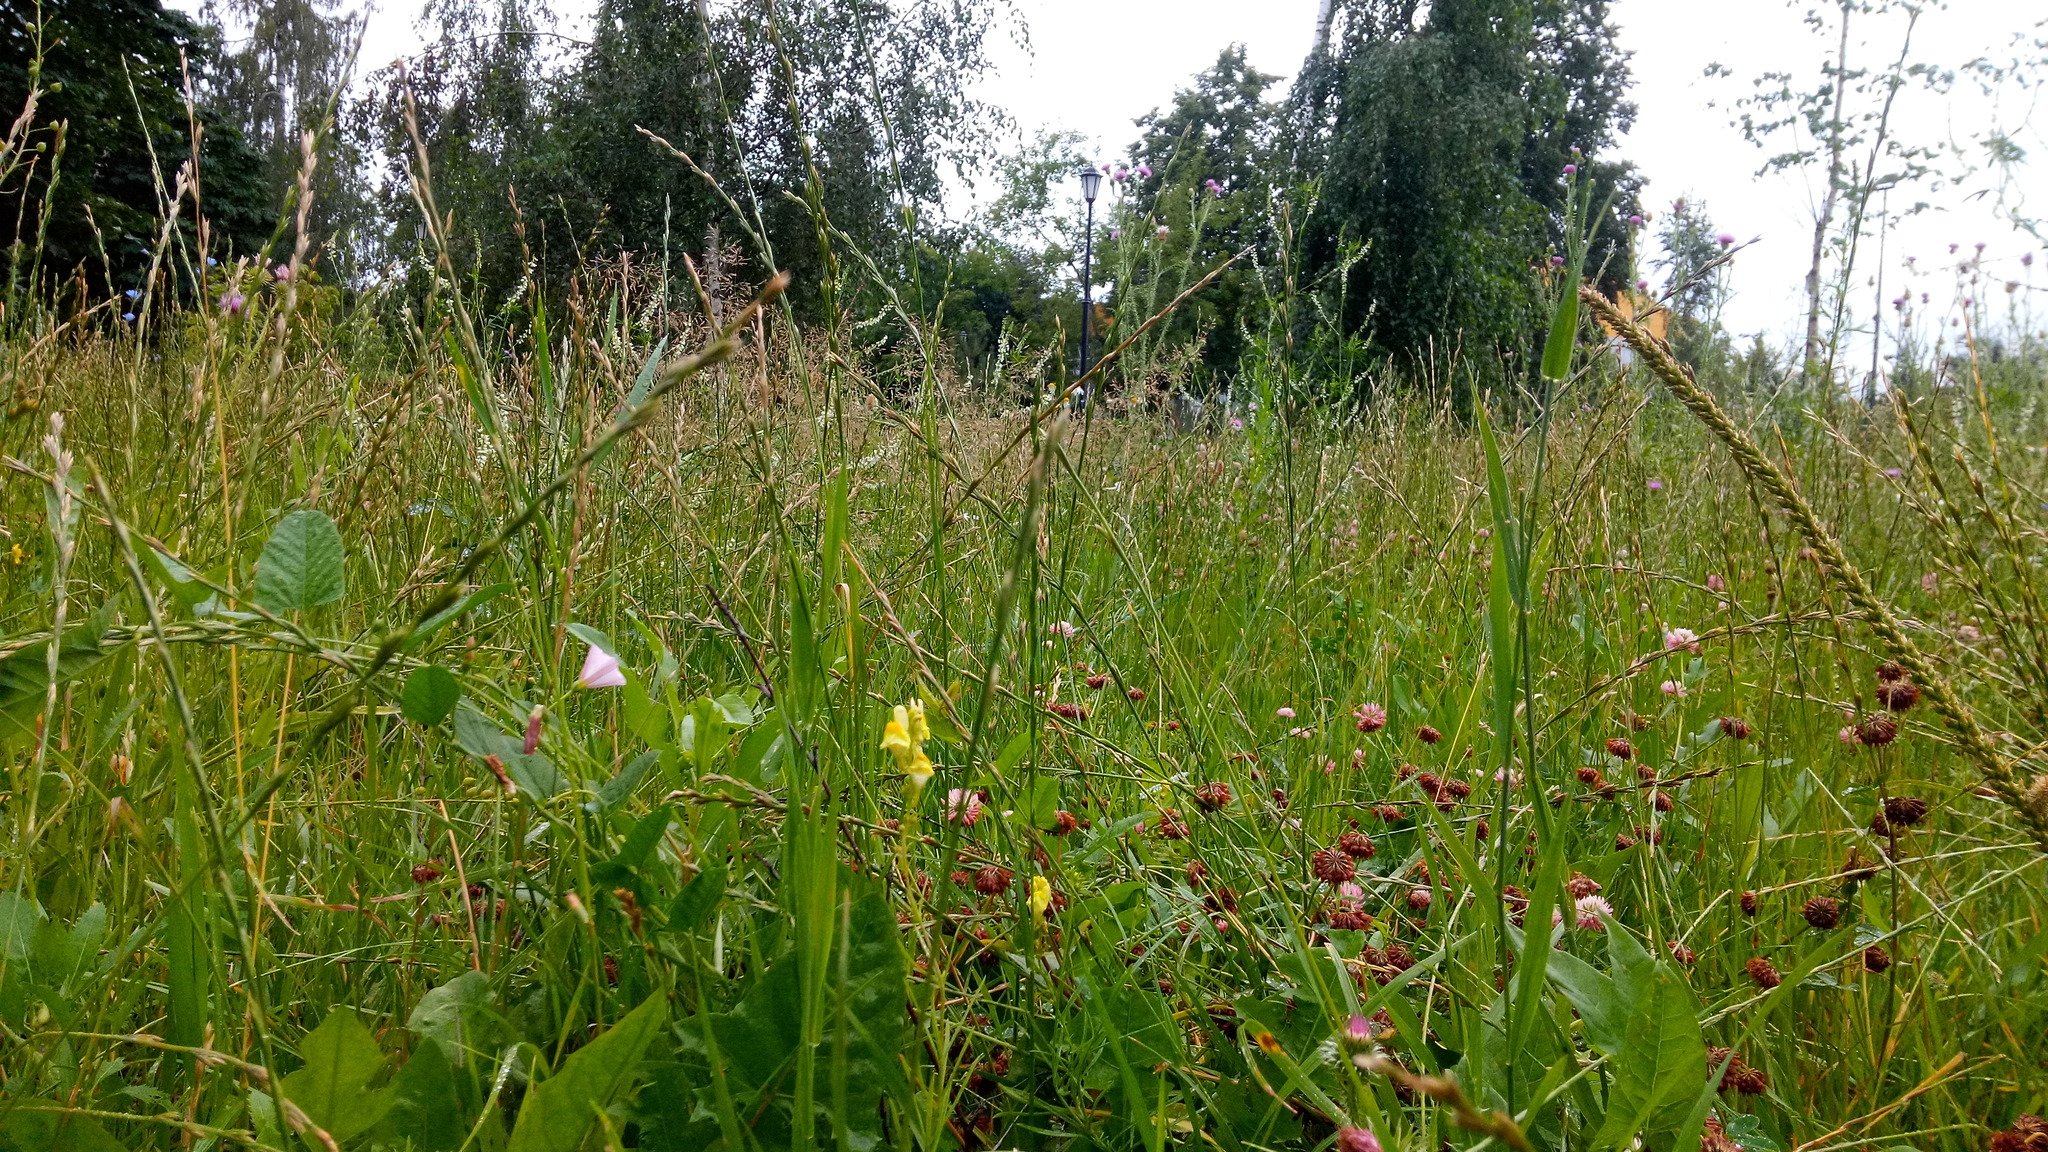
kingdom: Plantae
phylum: Tracheophyta
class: Magnoliopsida
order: Lamiales
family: Plantaginaceae
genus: Linaria
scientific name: Linaria vulgaris
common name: Butter and eggs
